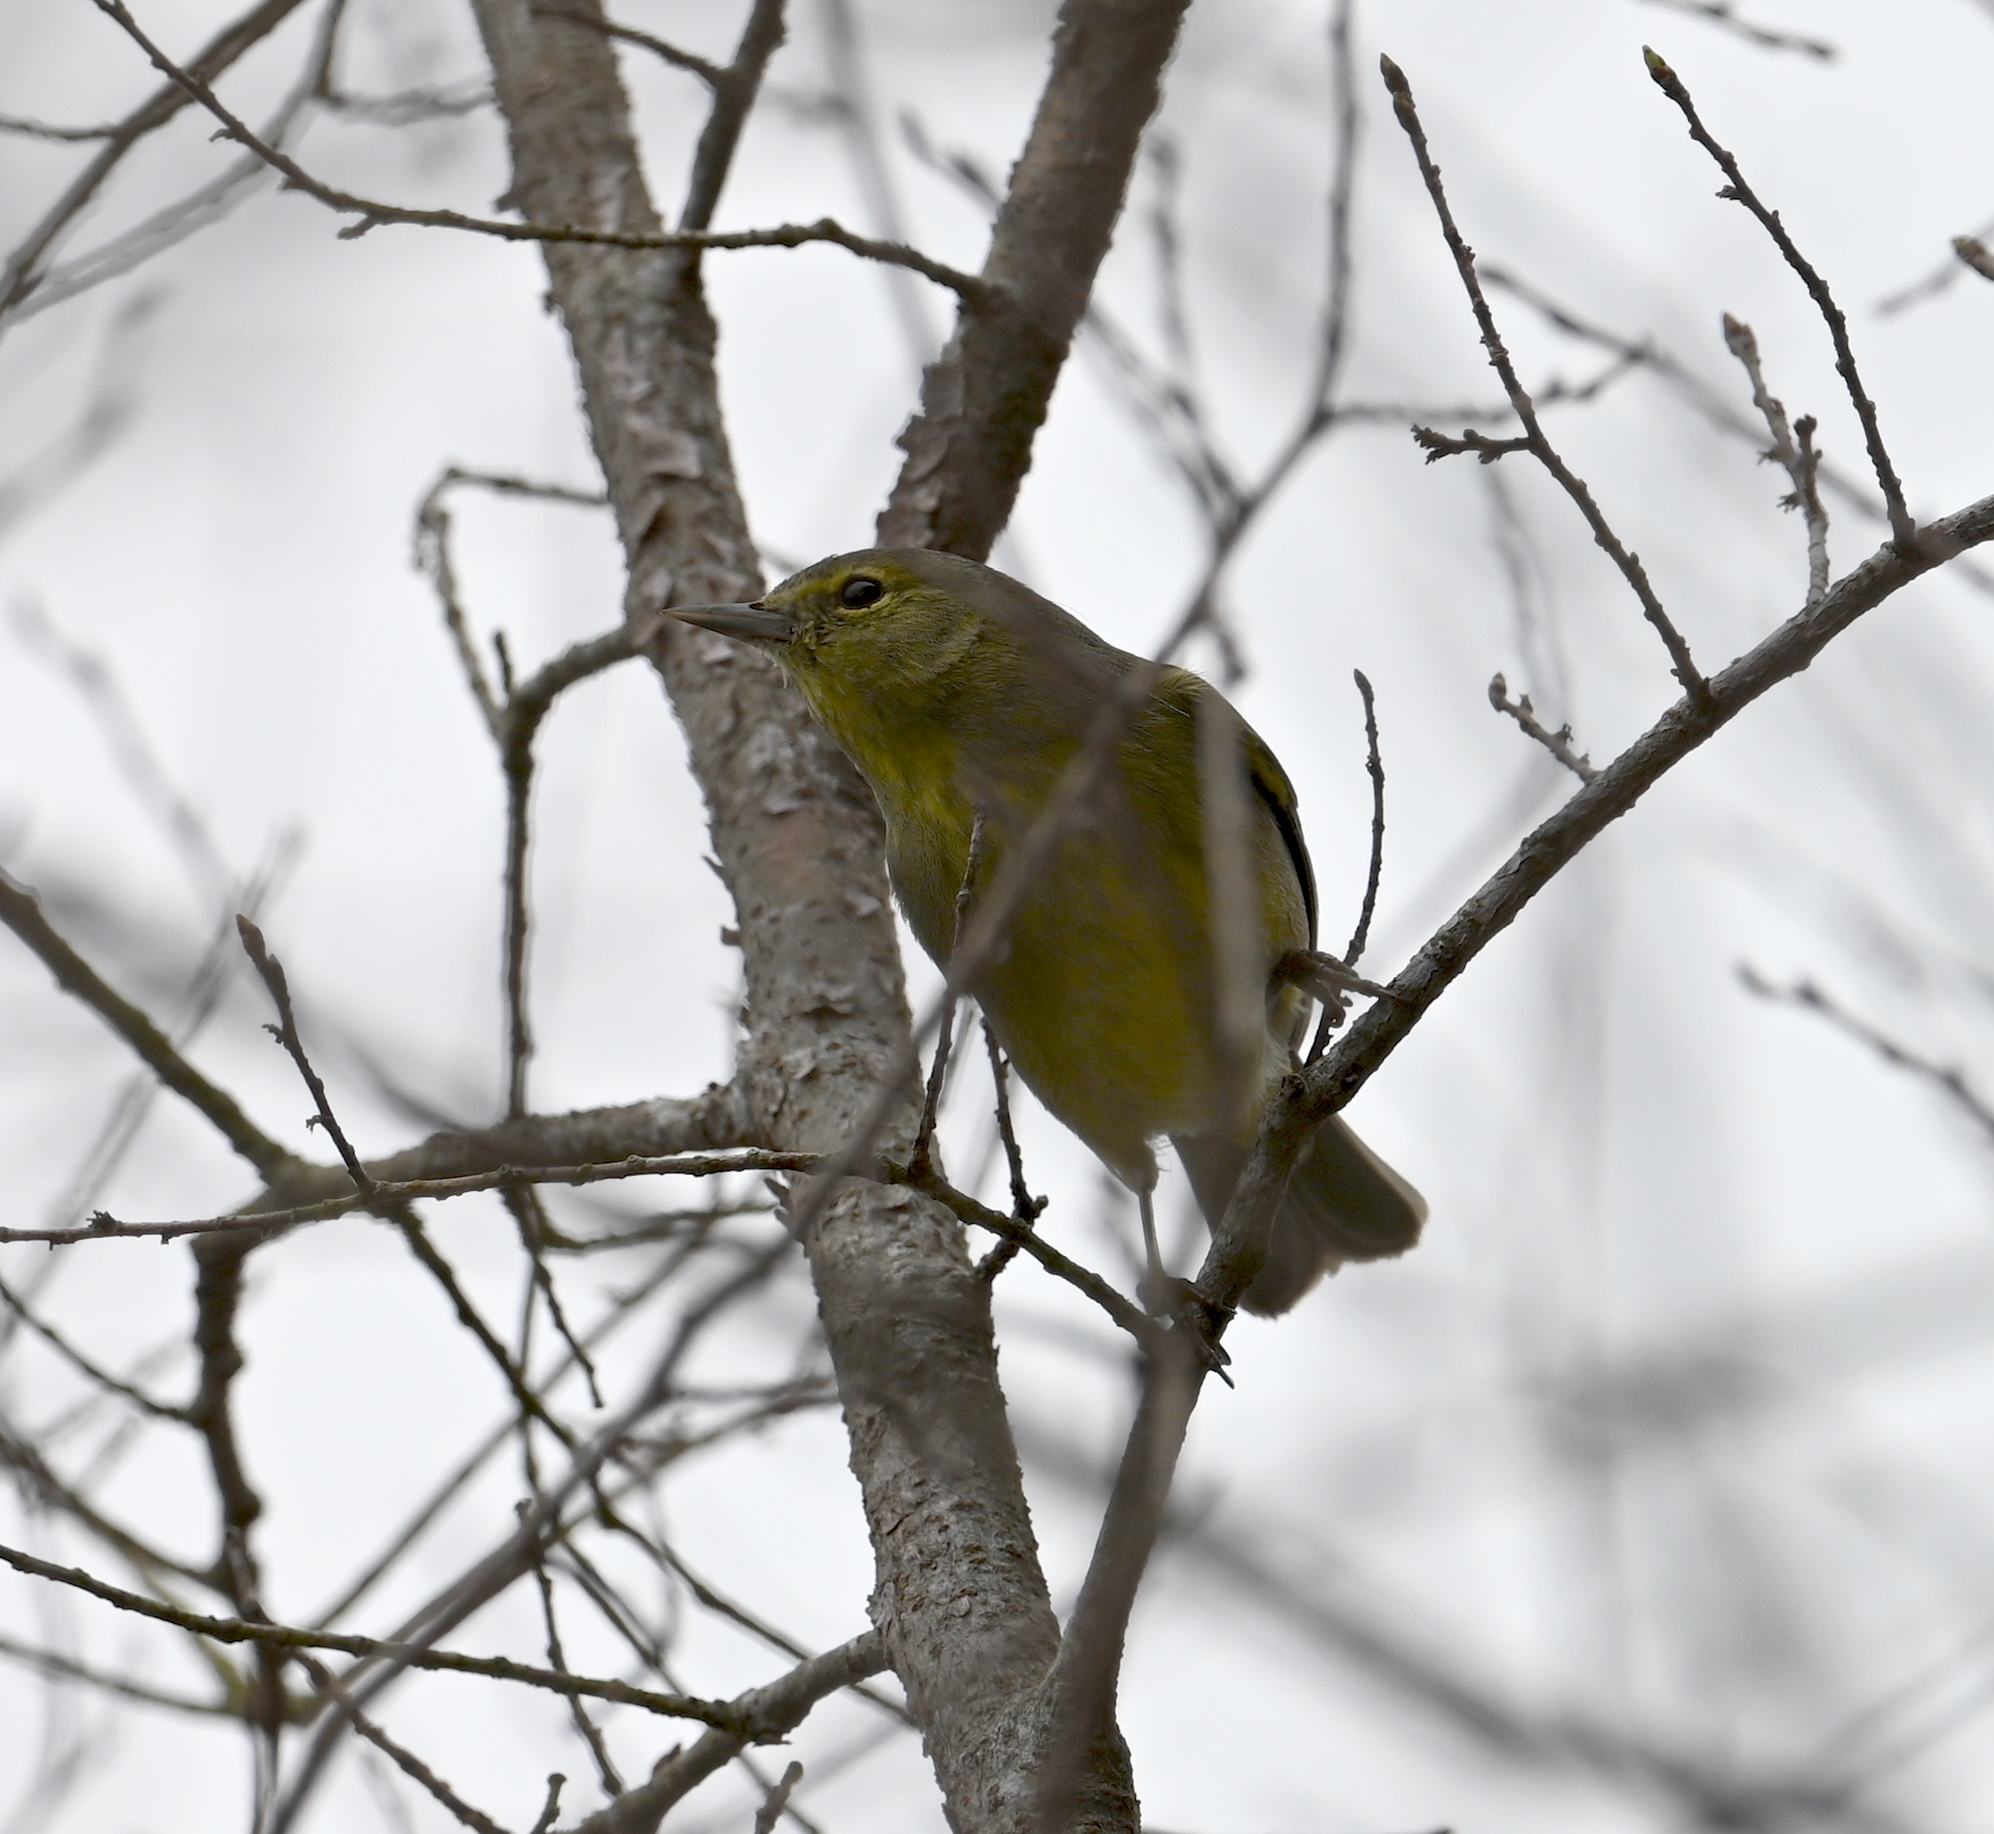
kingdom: Animalia
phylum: Chordata
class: Aves
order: Passeriformes
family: Parulidae
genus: Leiothlypis
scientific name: Leiothlypis celata
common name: Orange-crowned warbler
